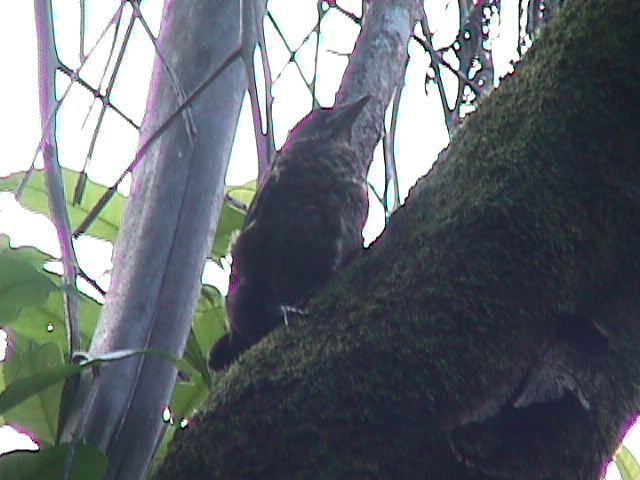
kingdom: Animalia
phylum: Chordata
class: Aves
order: Passeriformes
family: Turdidae
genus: Turdus
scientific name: Turdus merula
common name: Common blackbird
